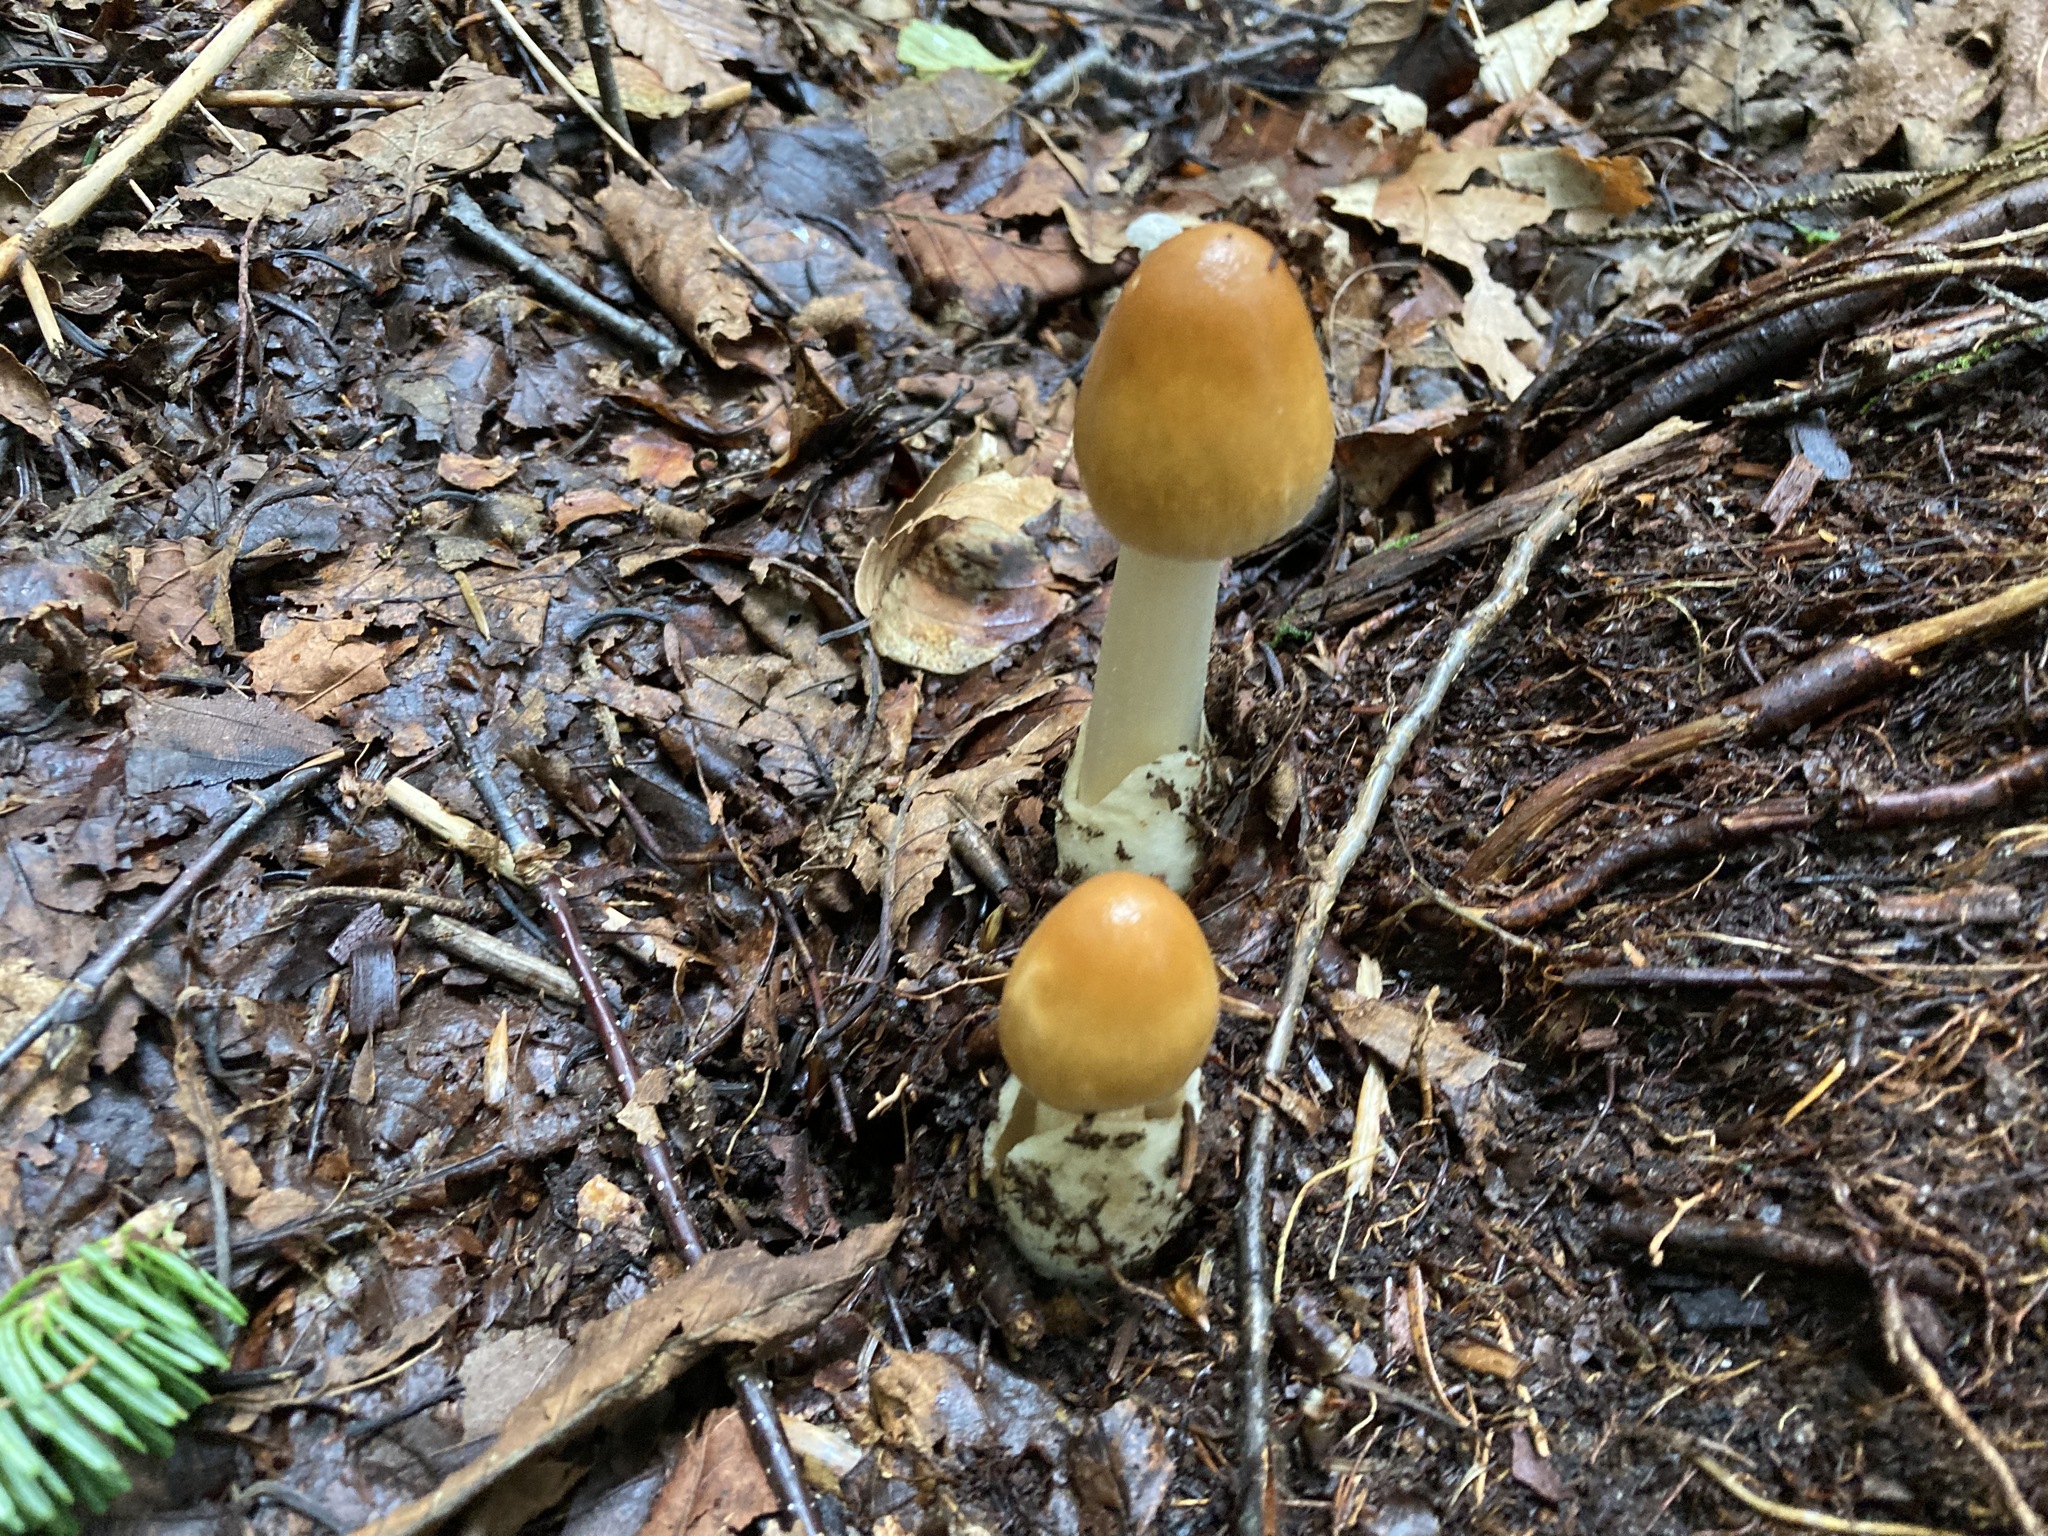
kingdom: Fungi
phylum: Basidiomycota
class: Agaricomycetes
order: Agaricales
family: Amanitaceae
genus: Amanita
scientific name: Amanita fulva
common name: Tawny grisette
